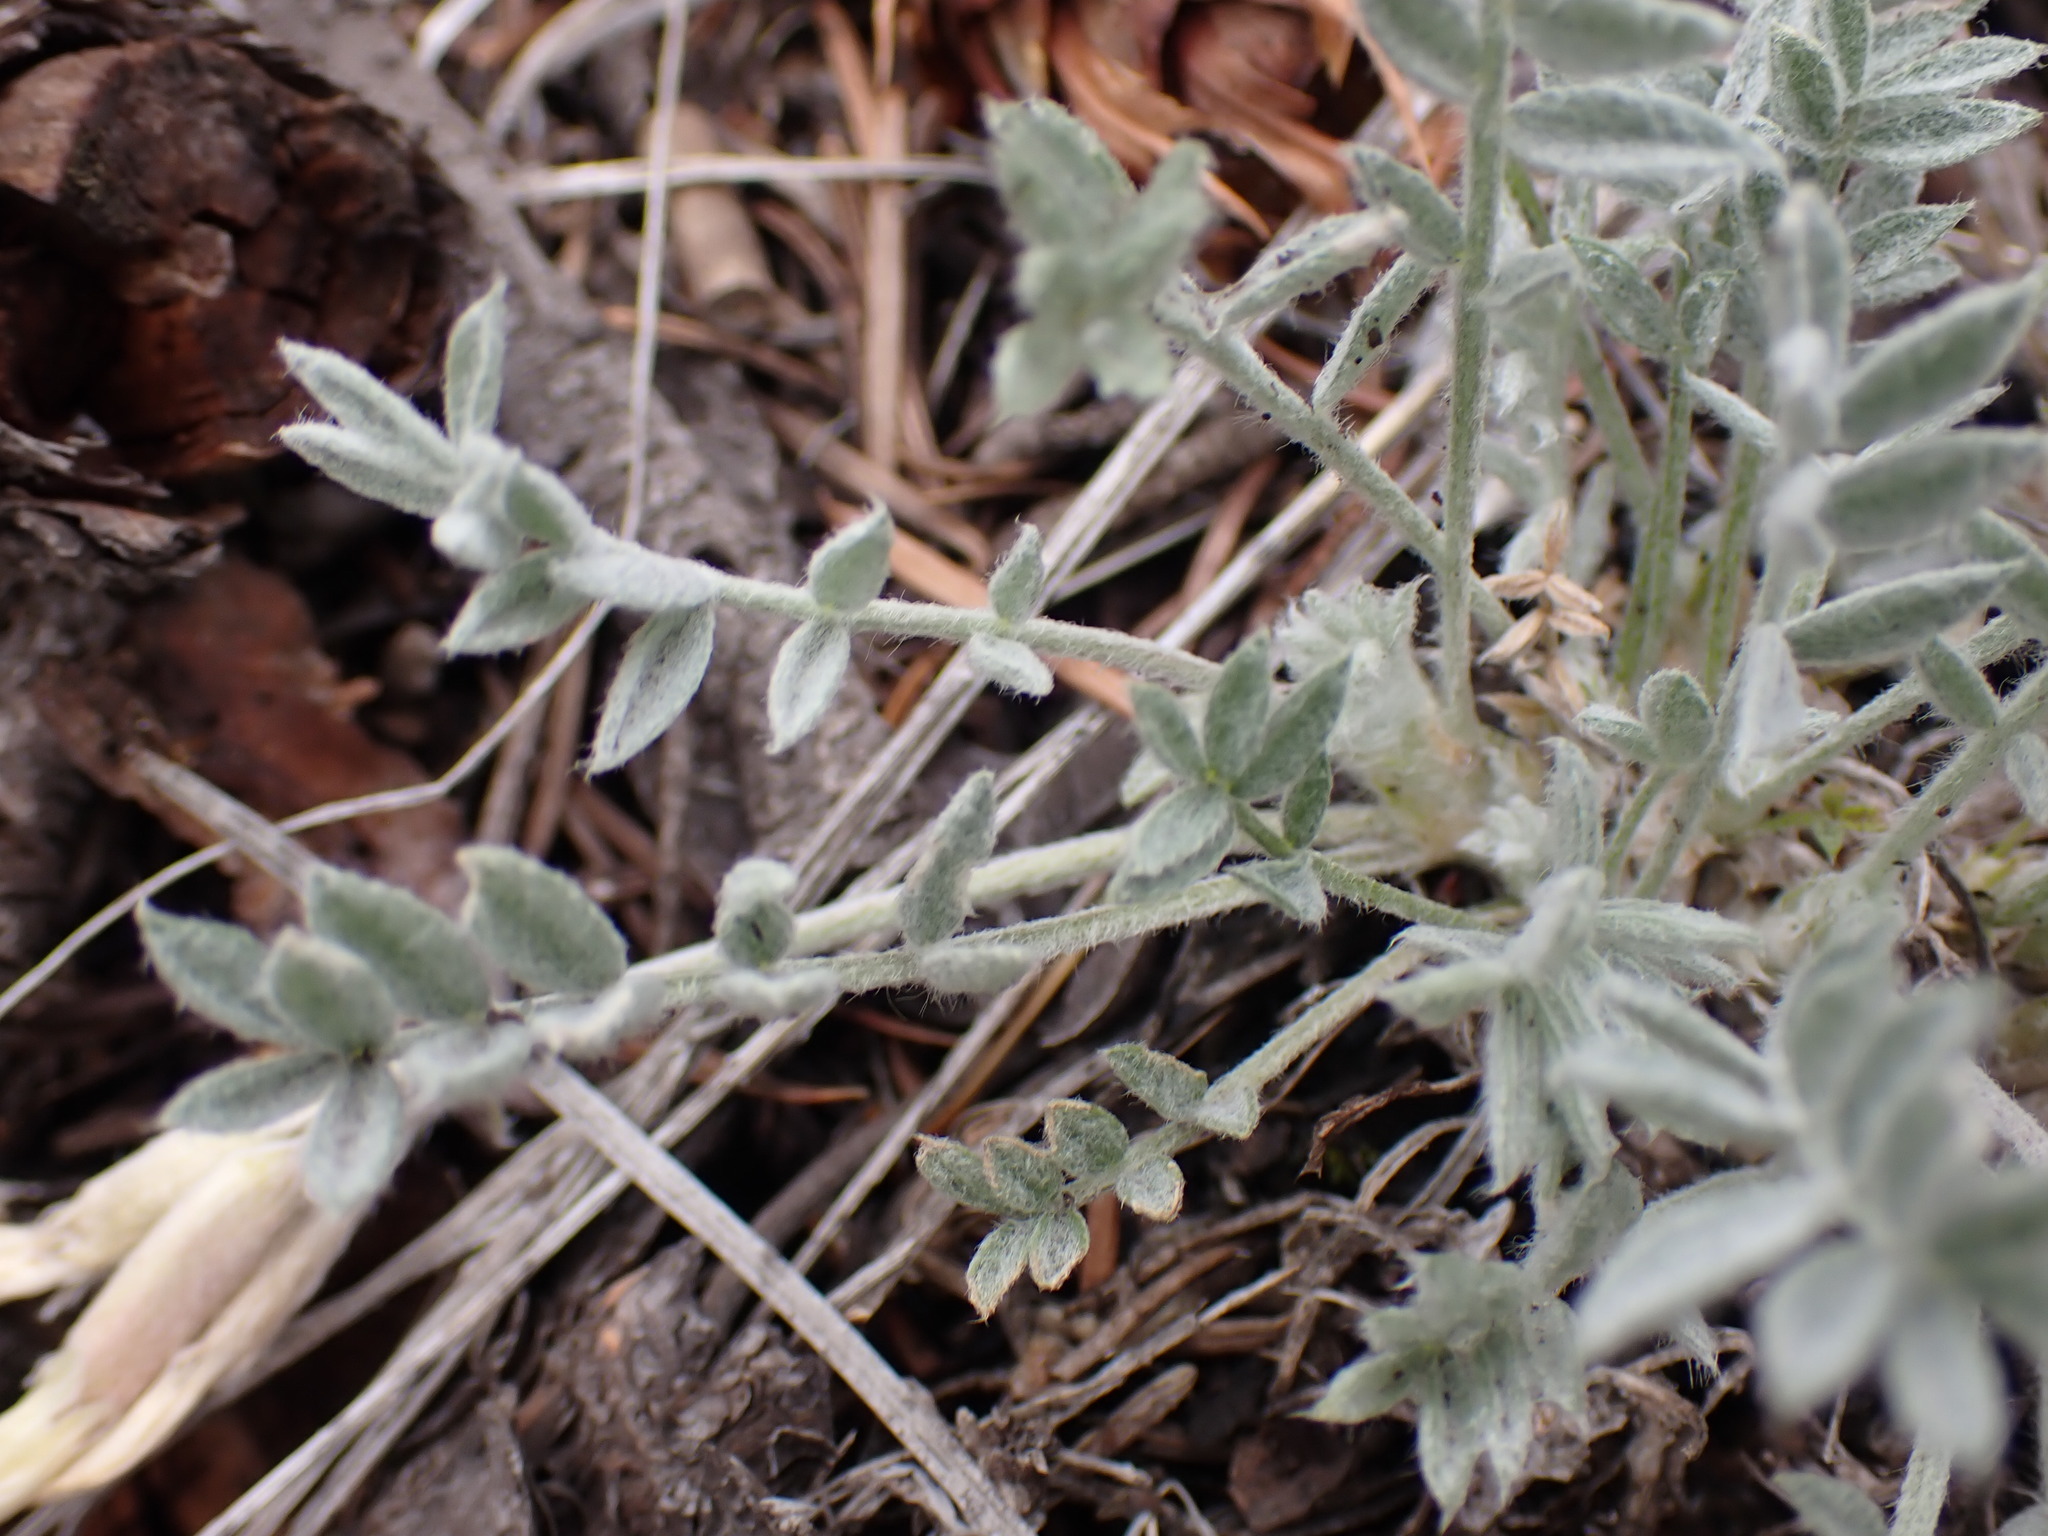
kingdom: Plantae
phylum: Tracheophyta
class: Magnoliopsida
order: Fabales
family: Fabaceae
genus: Astragalus
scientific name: Astragalus purshii
